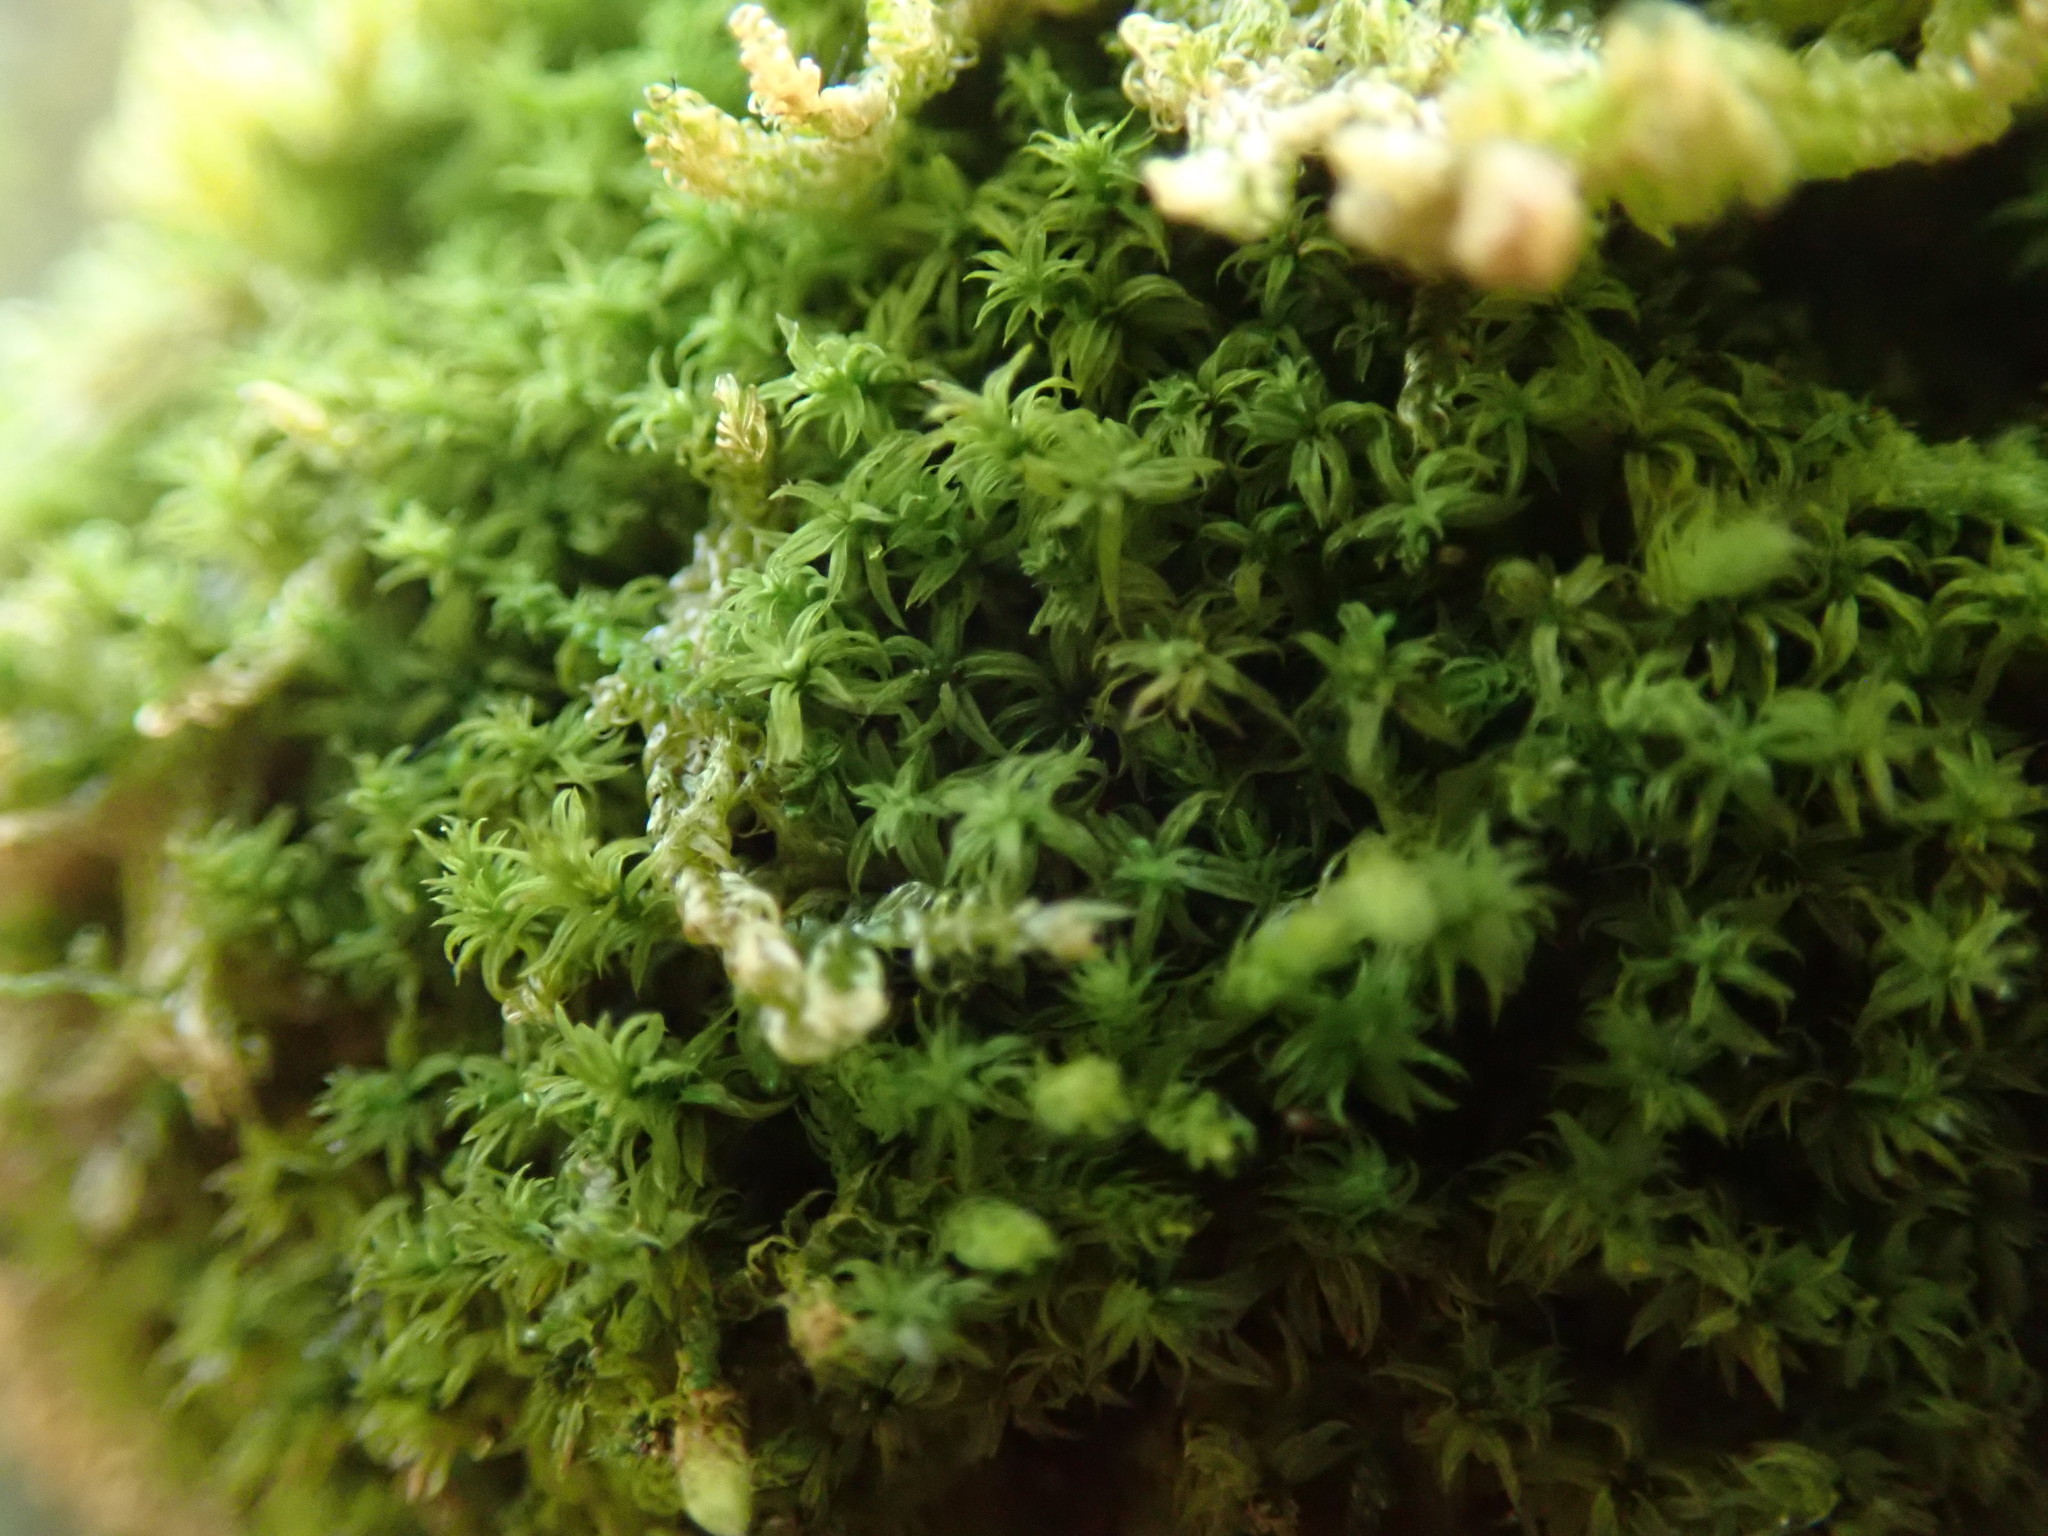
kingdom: Plantae
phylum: Bryophyta
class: Bryopsida
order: Orthotrichales
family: Orthotrichaceae
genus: Zygodon
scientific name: Zygodon rupestris
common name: Park yoke moss
